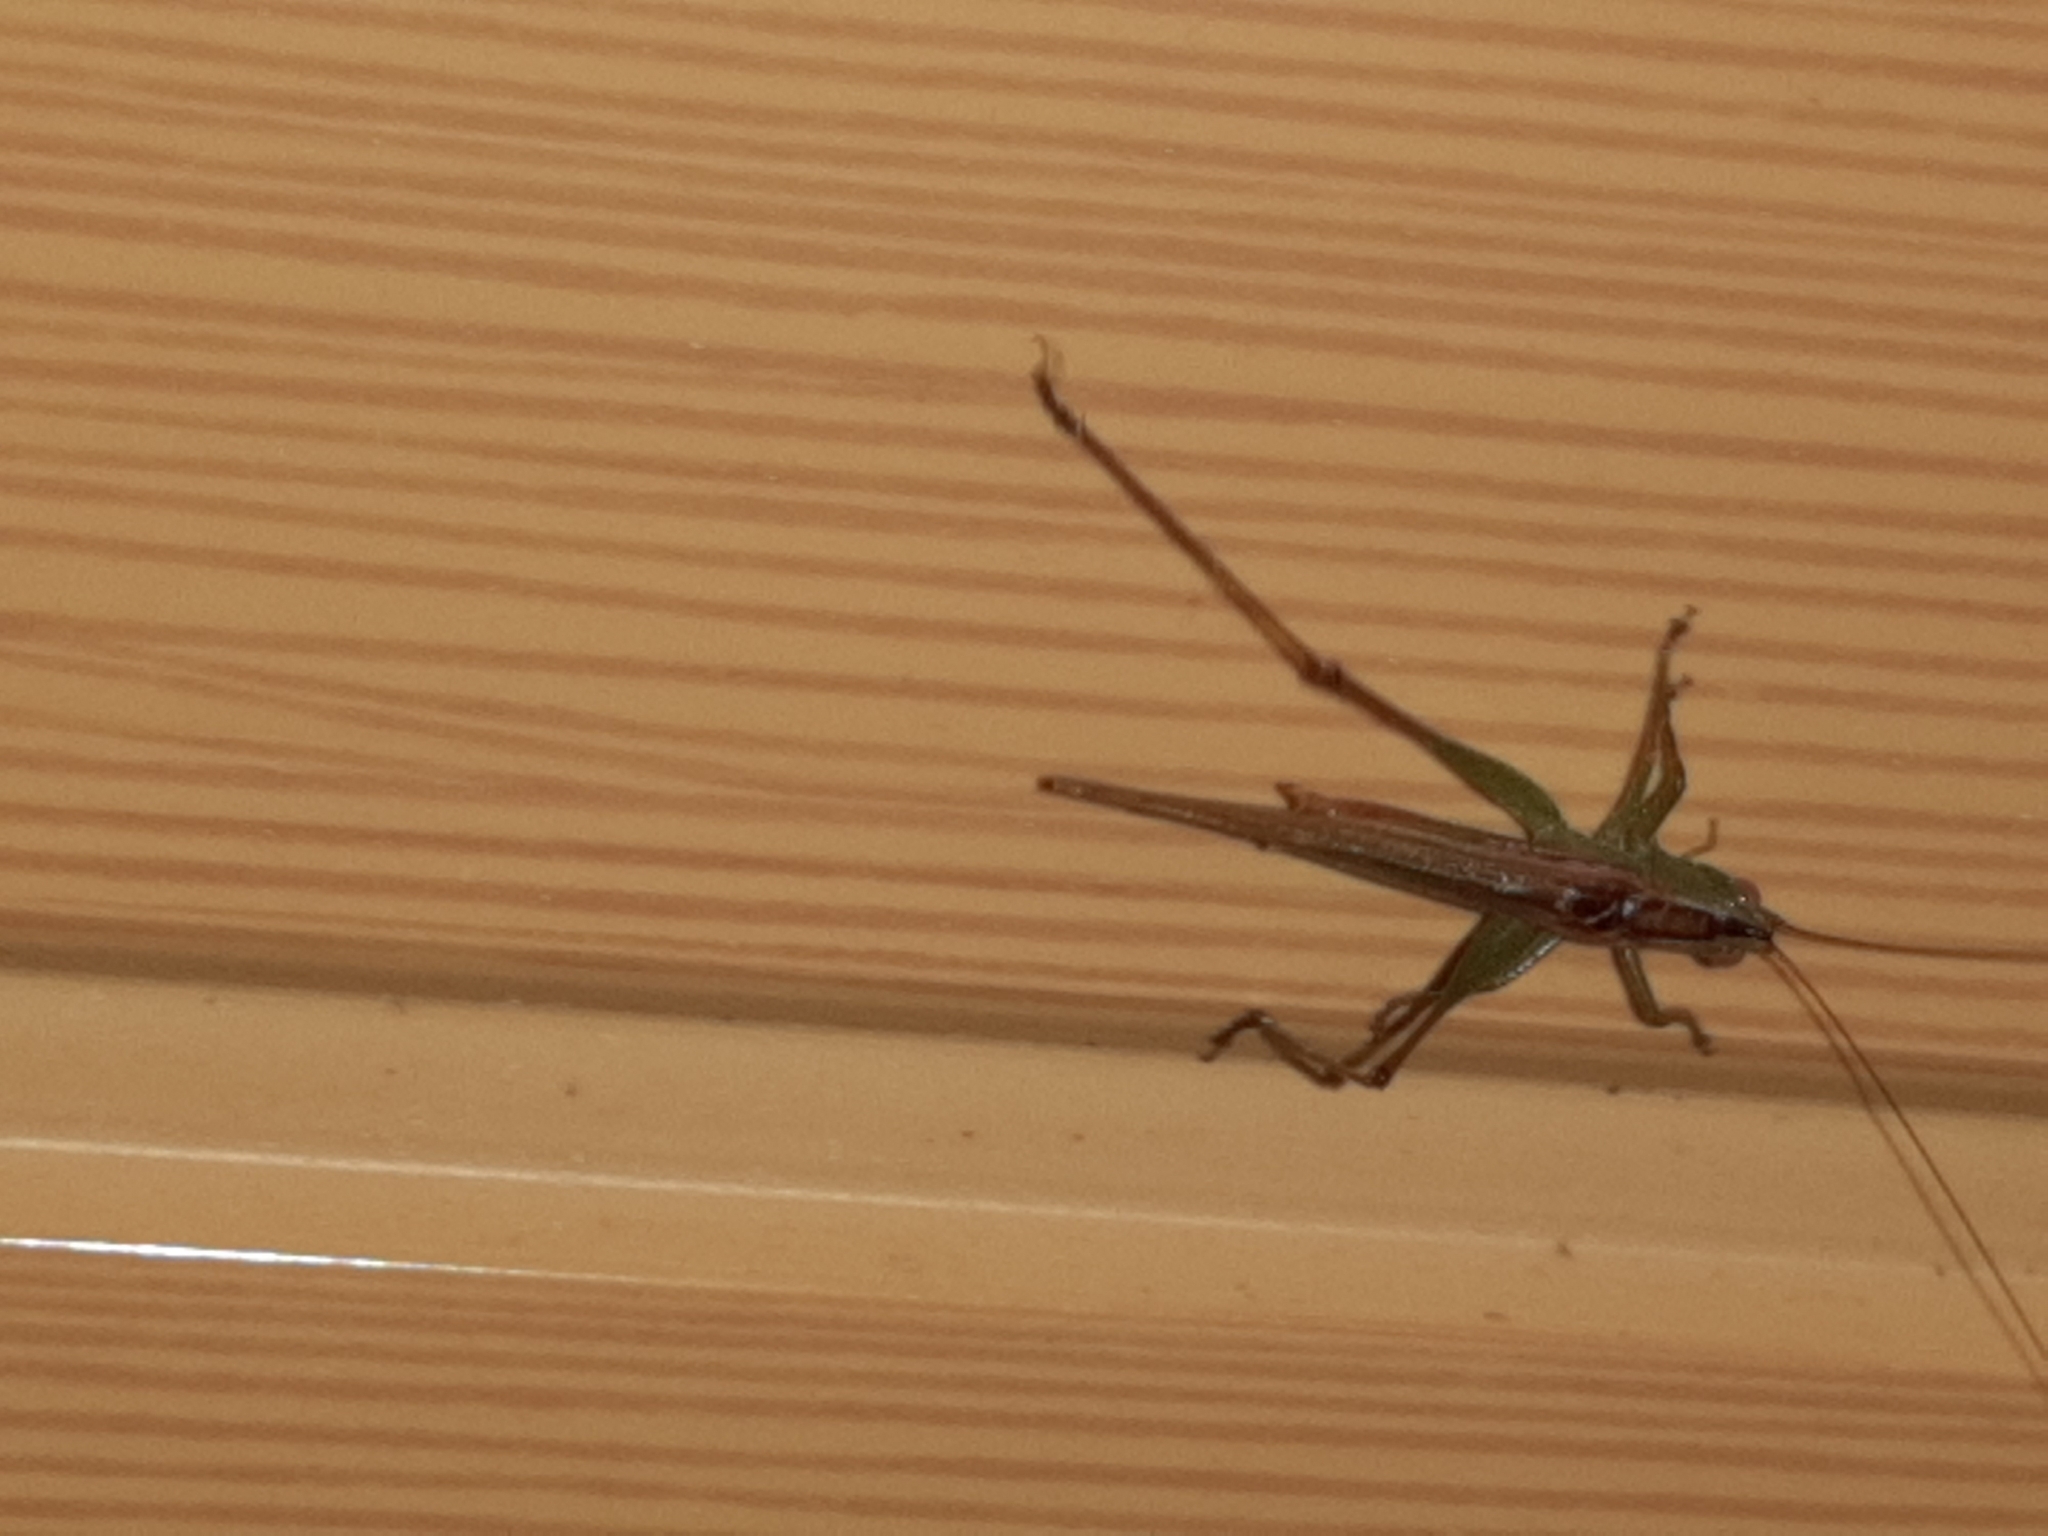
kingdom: Animalia
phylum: Arthropoda
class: Insecta
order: Orthoptera
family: Tettigoniidae
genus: Conocephalus
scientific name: Conocephalus cinereus
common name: Caribbean meadow katydid
